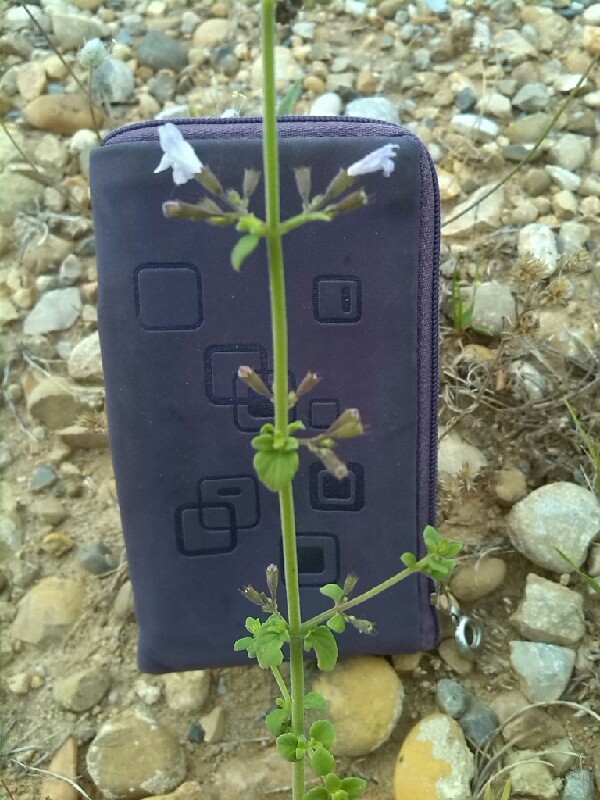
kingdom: Plantae
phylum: Tracheophyta
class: Magnoliopsida
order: Lamiales
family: Lamiaceae
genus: Clinopodium
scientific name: Clinopodium nepeta
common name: Lesser calamint
